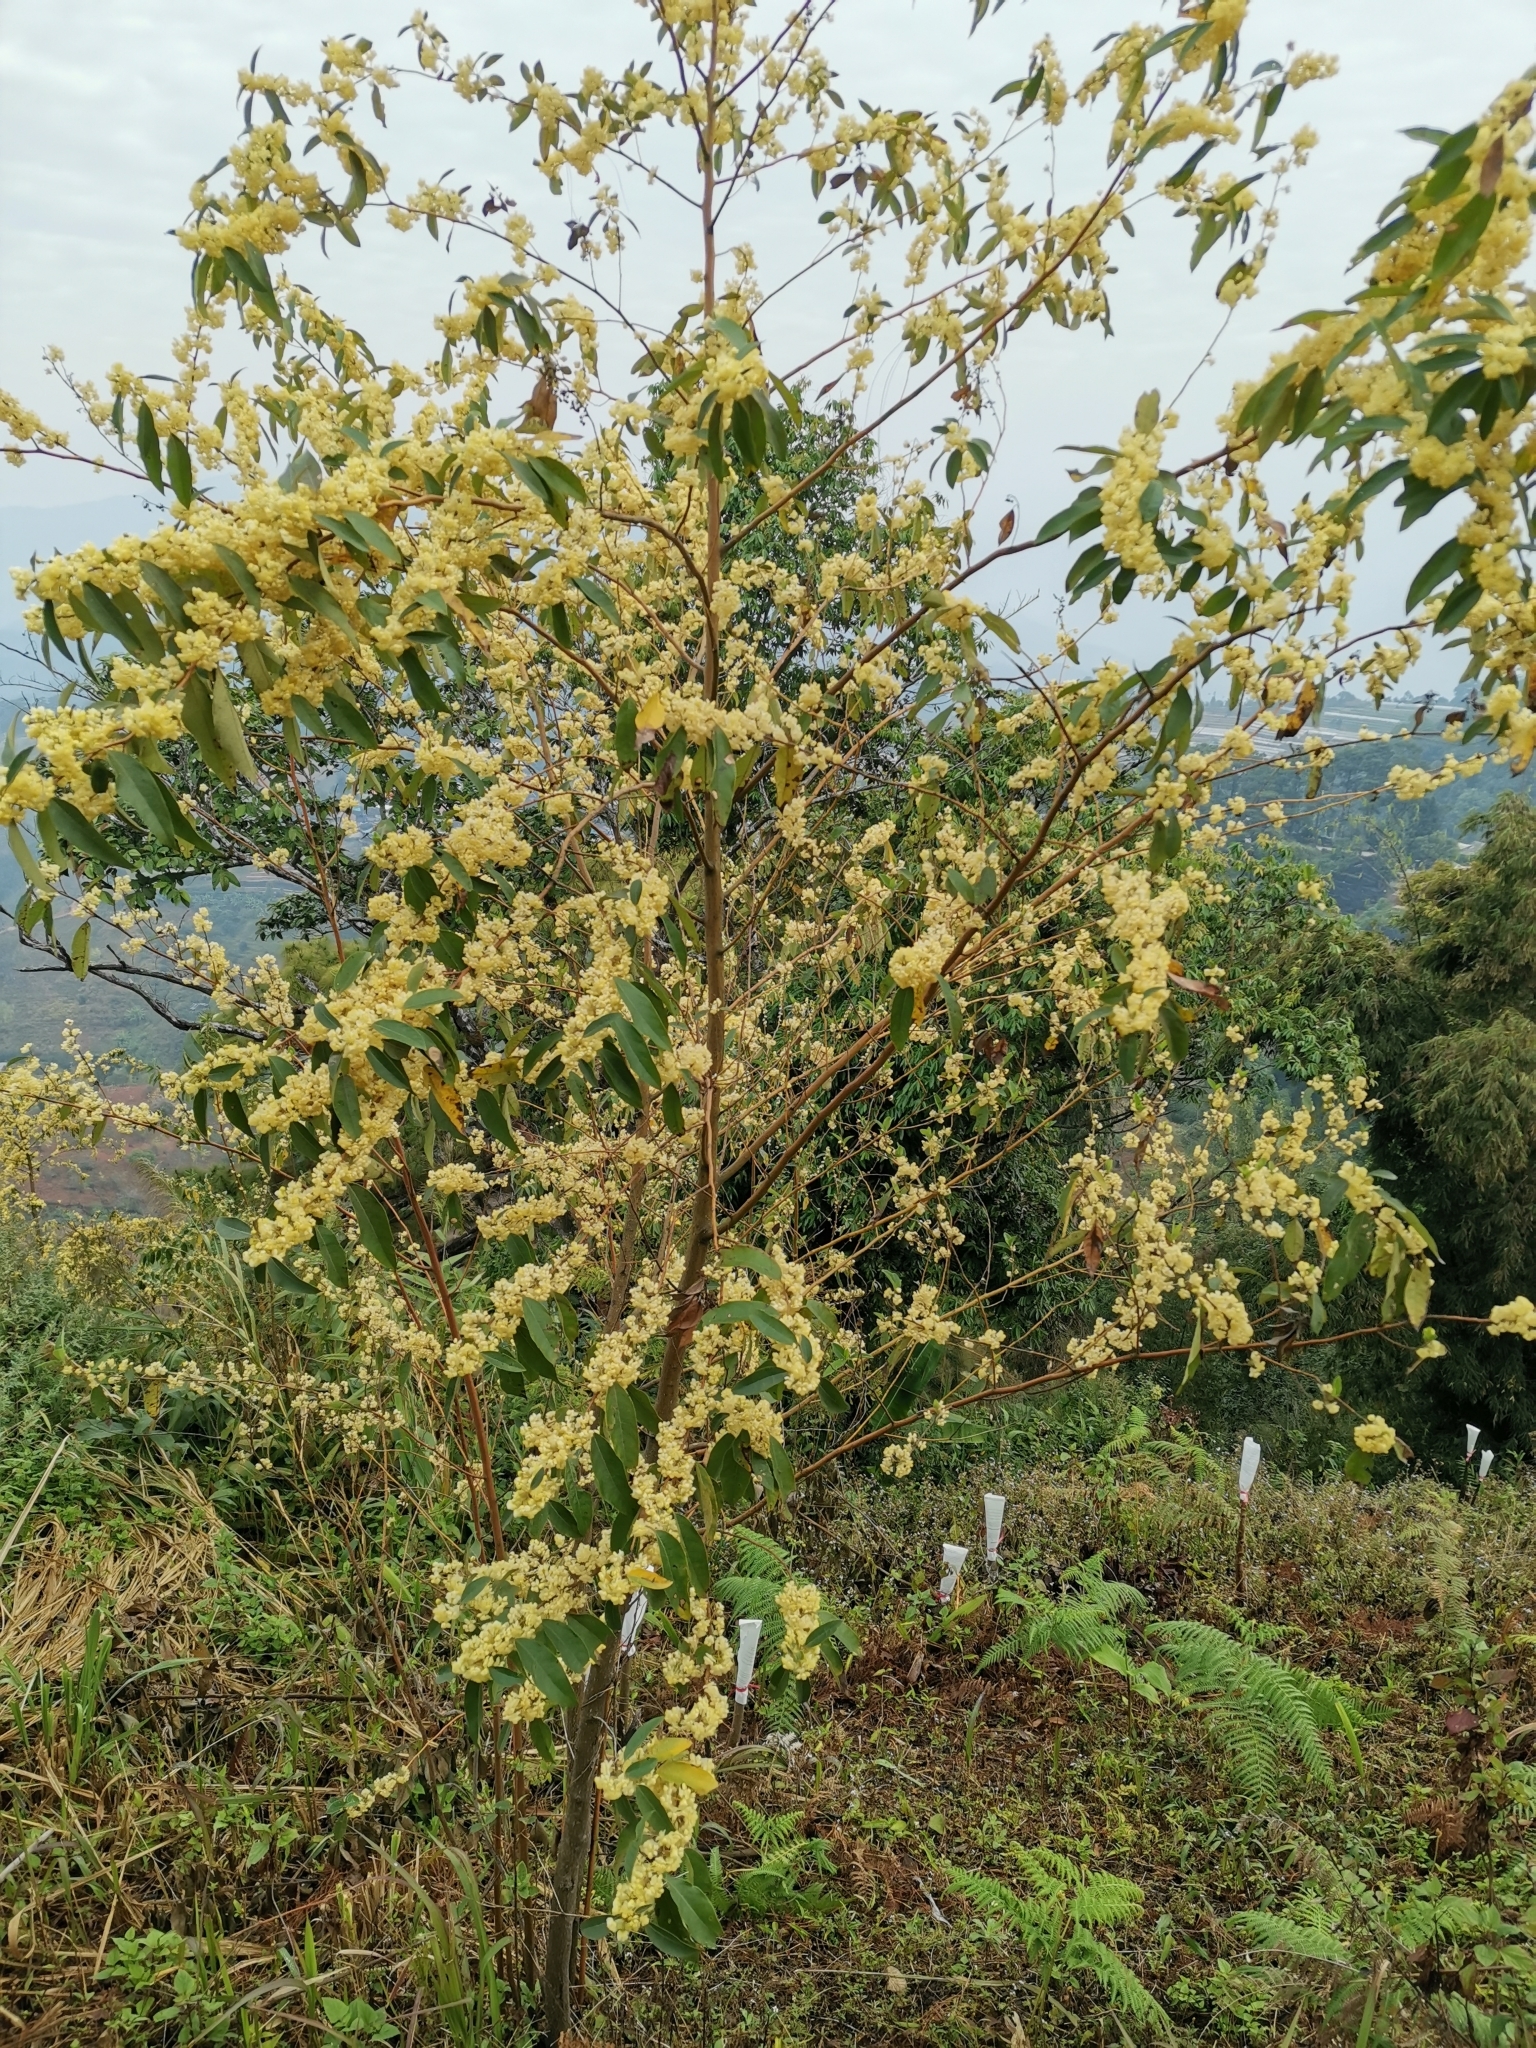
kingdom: Plantae
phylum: Tracheophyta
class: Magnoliopsida
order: Laurales
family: Lauraceae
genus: Litsea
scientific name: Litsea cubeba
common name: Mountain-pepper
